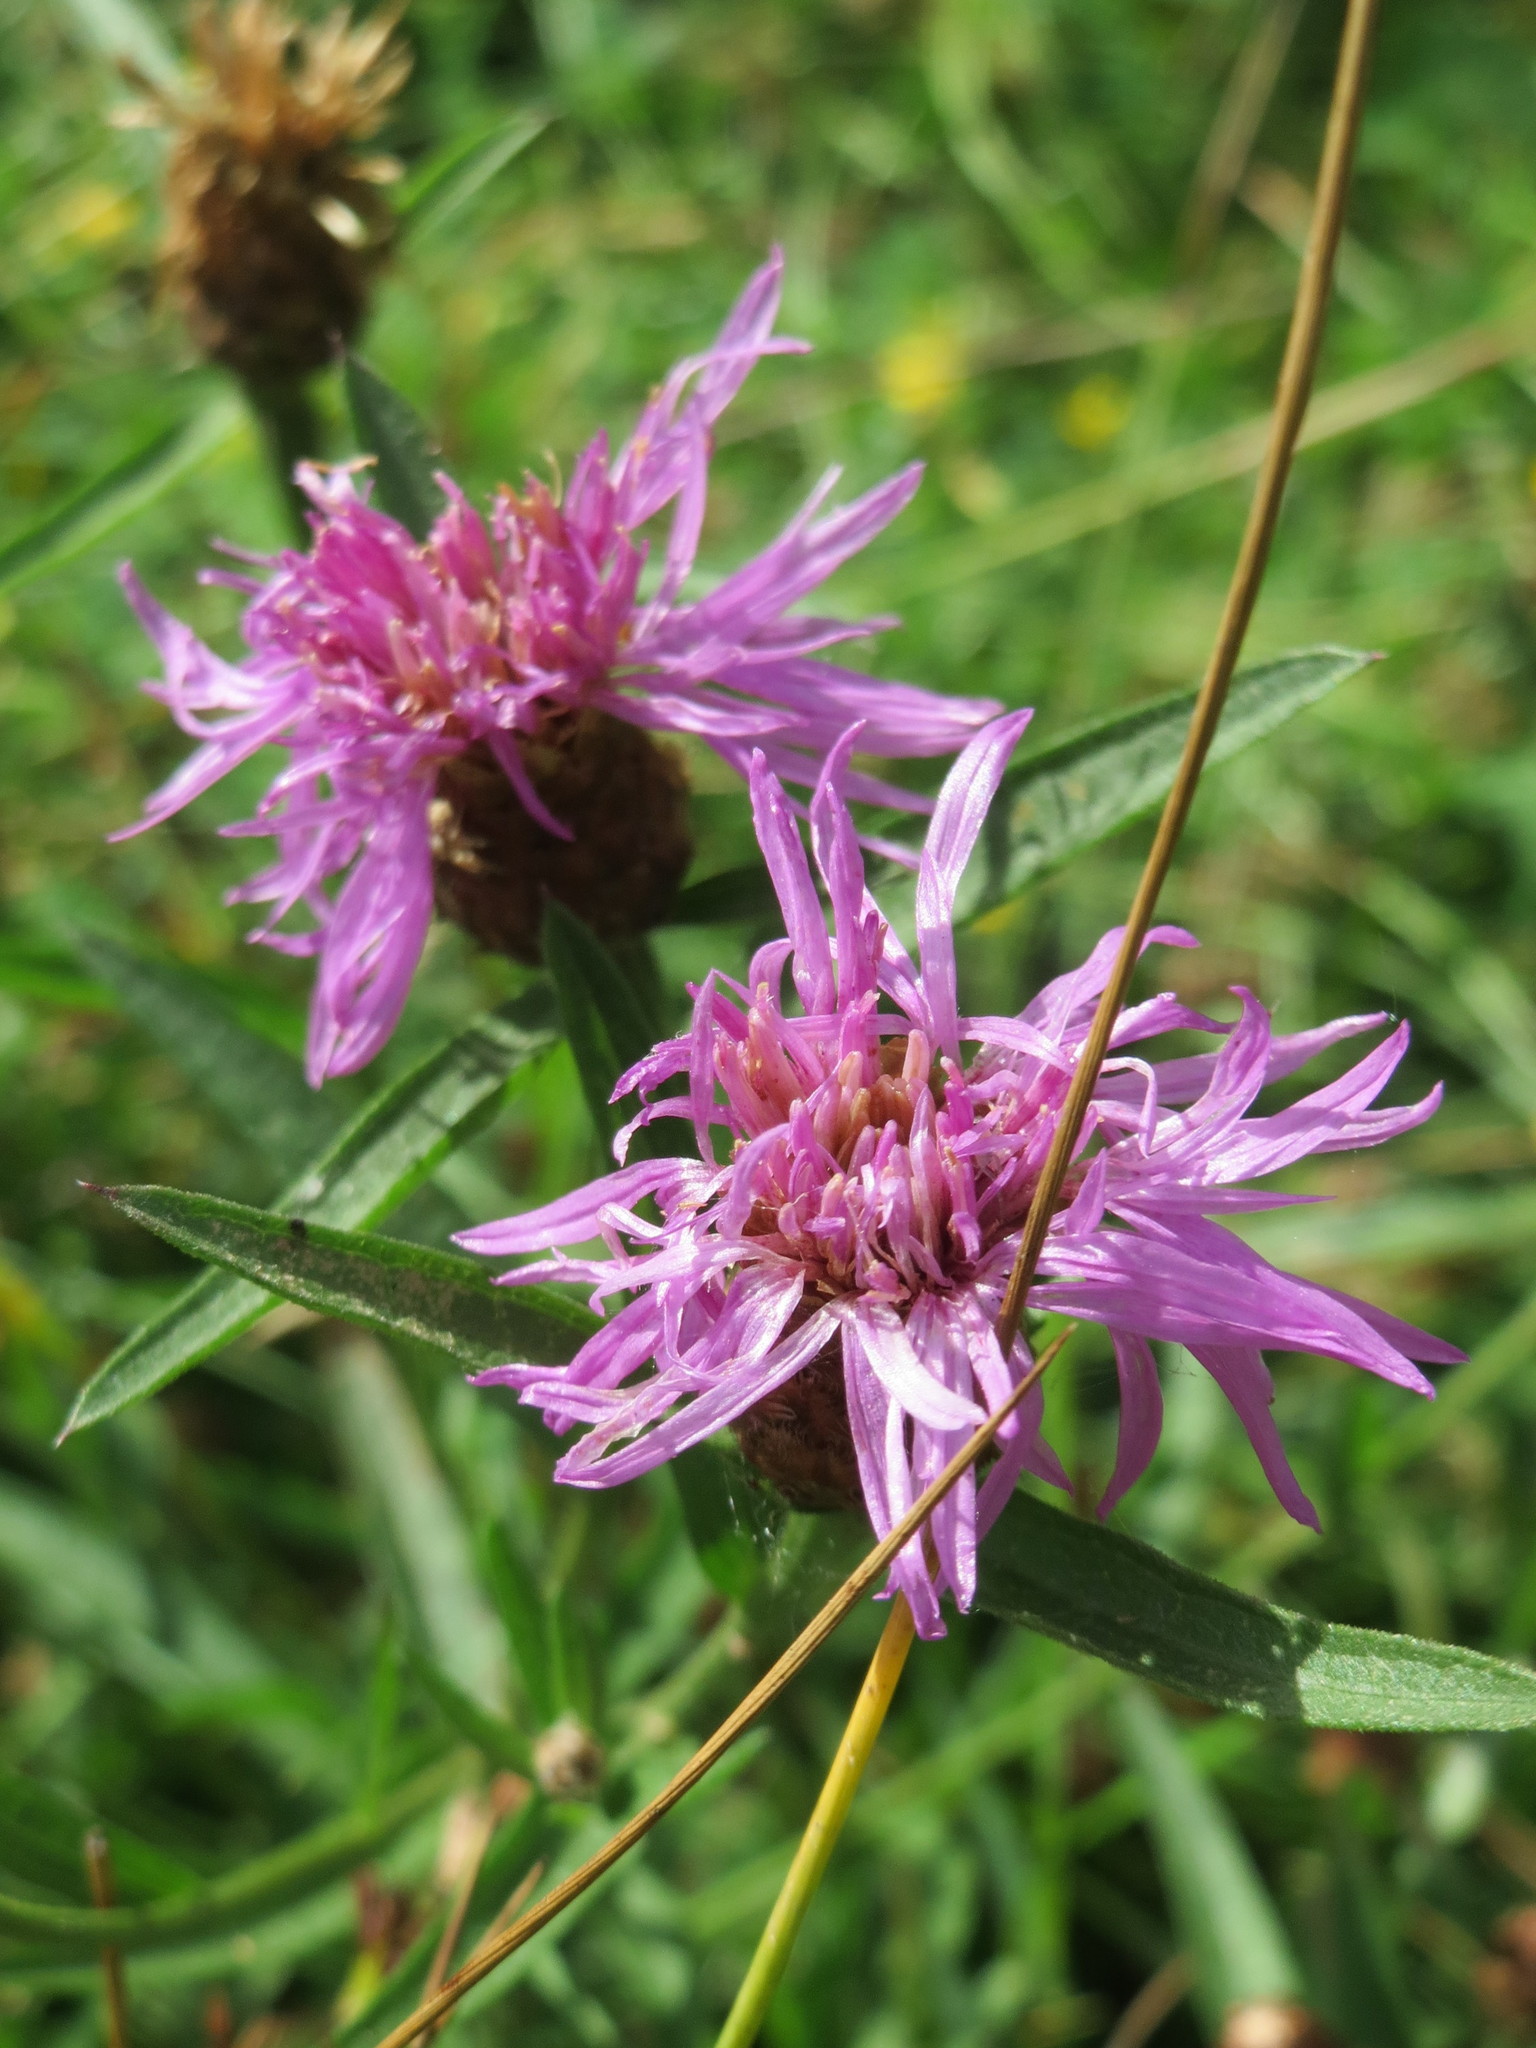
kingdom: Plantae
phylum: Tracheophyta
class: Magnoliopsida
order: Asterales
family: Asteraceae
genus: Centaurea
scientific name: Centaurea jacea
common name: Brown knapweed
